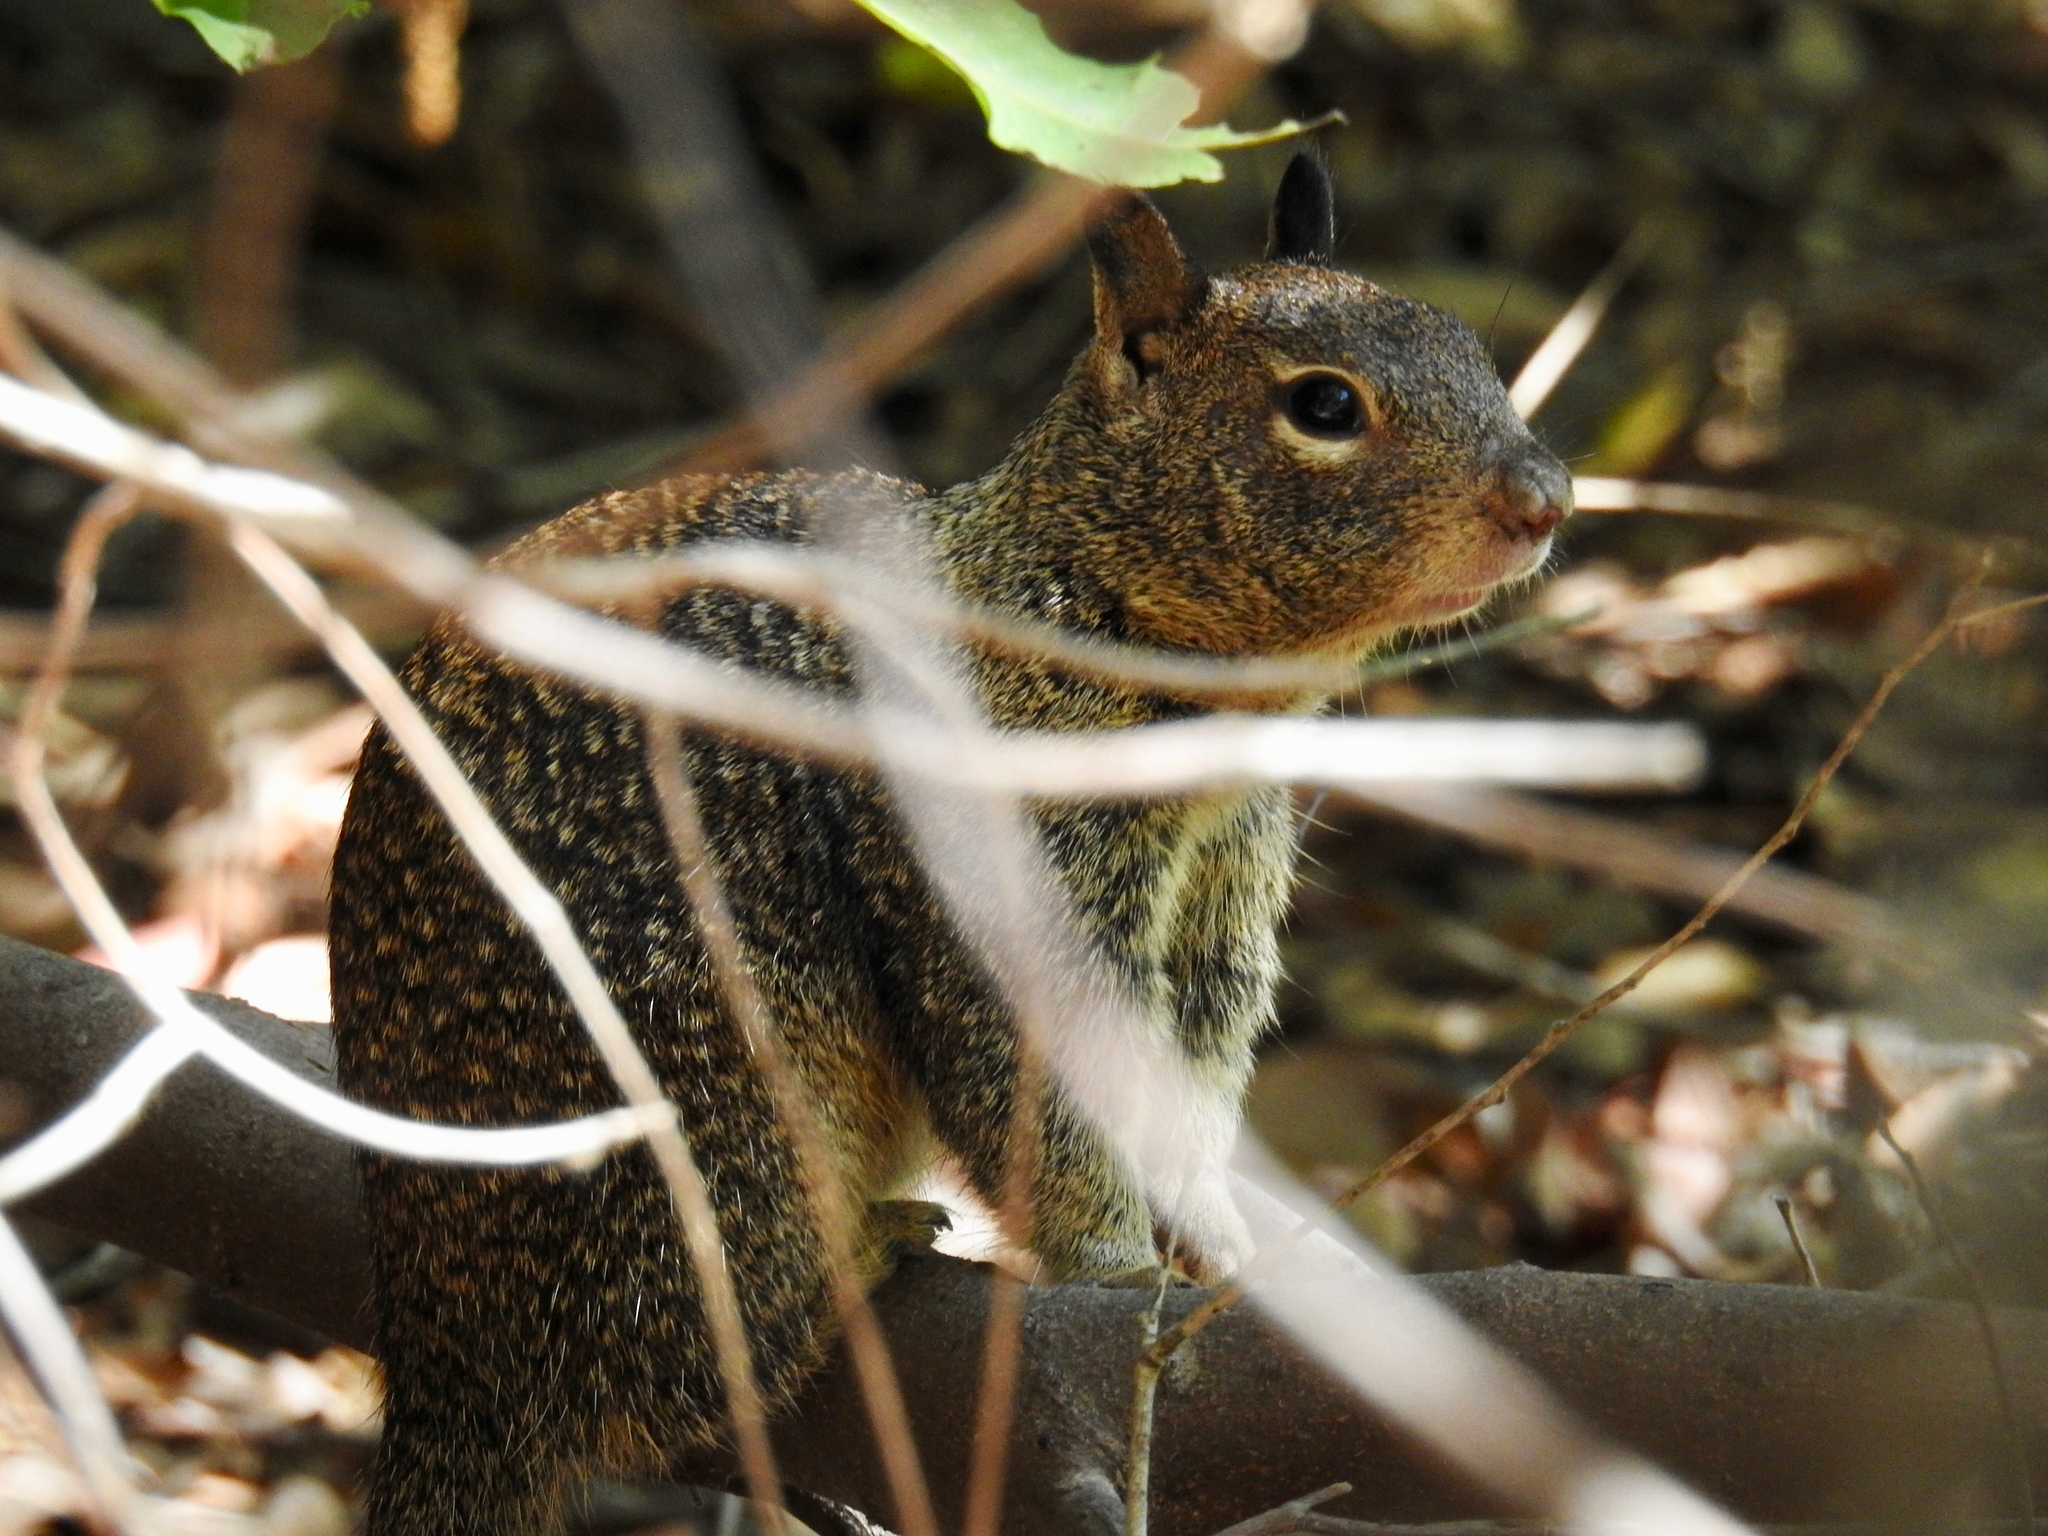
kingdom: Animalia
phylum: Chordata
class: Mammalia
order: Rodentia
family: Sciuridae
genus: Otospermophilus
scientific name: Otospermophilus beecheyi
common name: California ground squirrel
